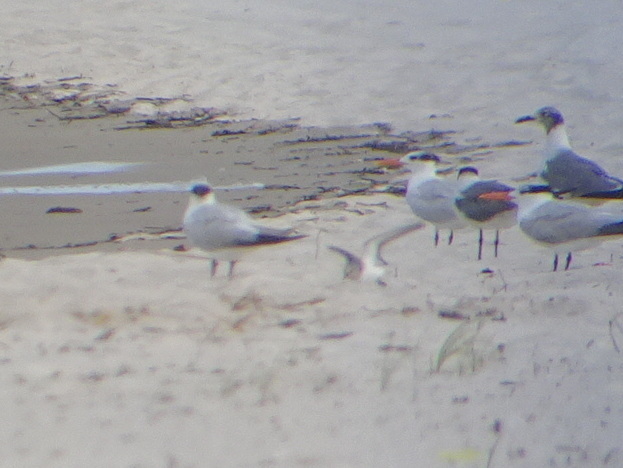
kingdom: Animalia
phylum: Chordata
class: Aves
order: Charadriiformes
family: Scolopacidae
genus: Calidris
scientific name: Calidris alba
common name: Sanderling
